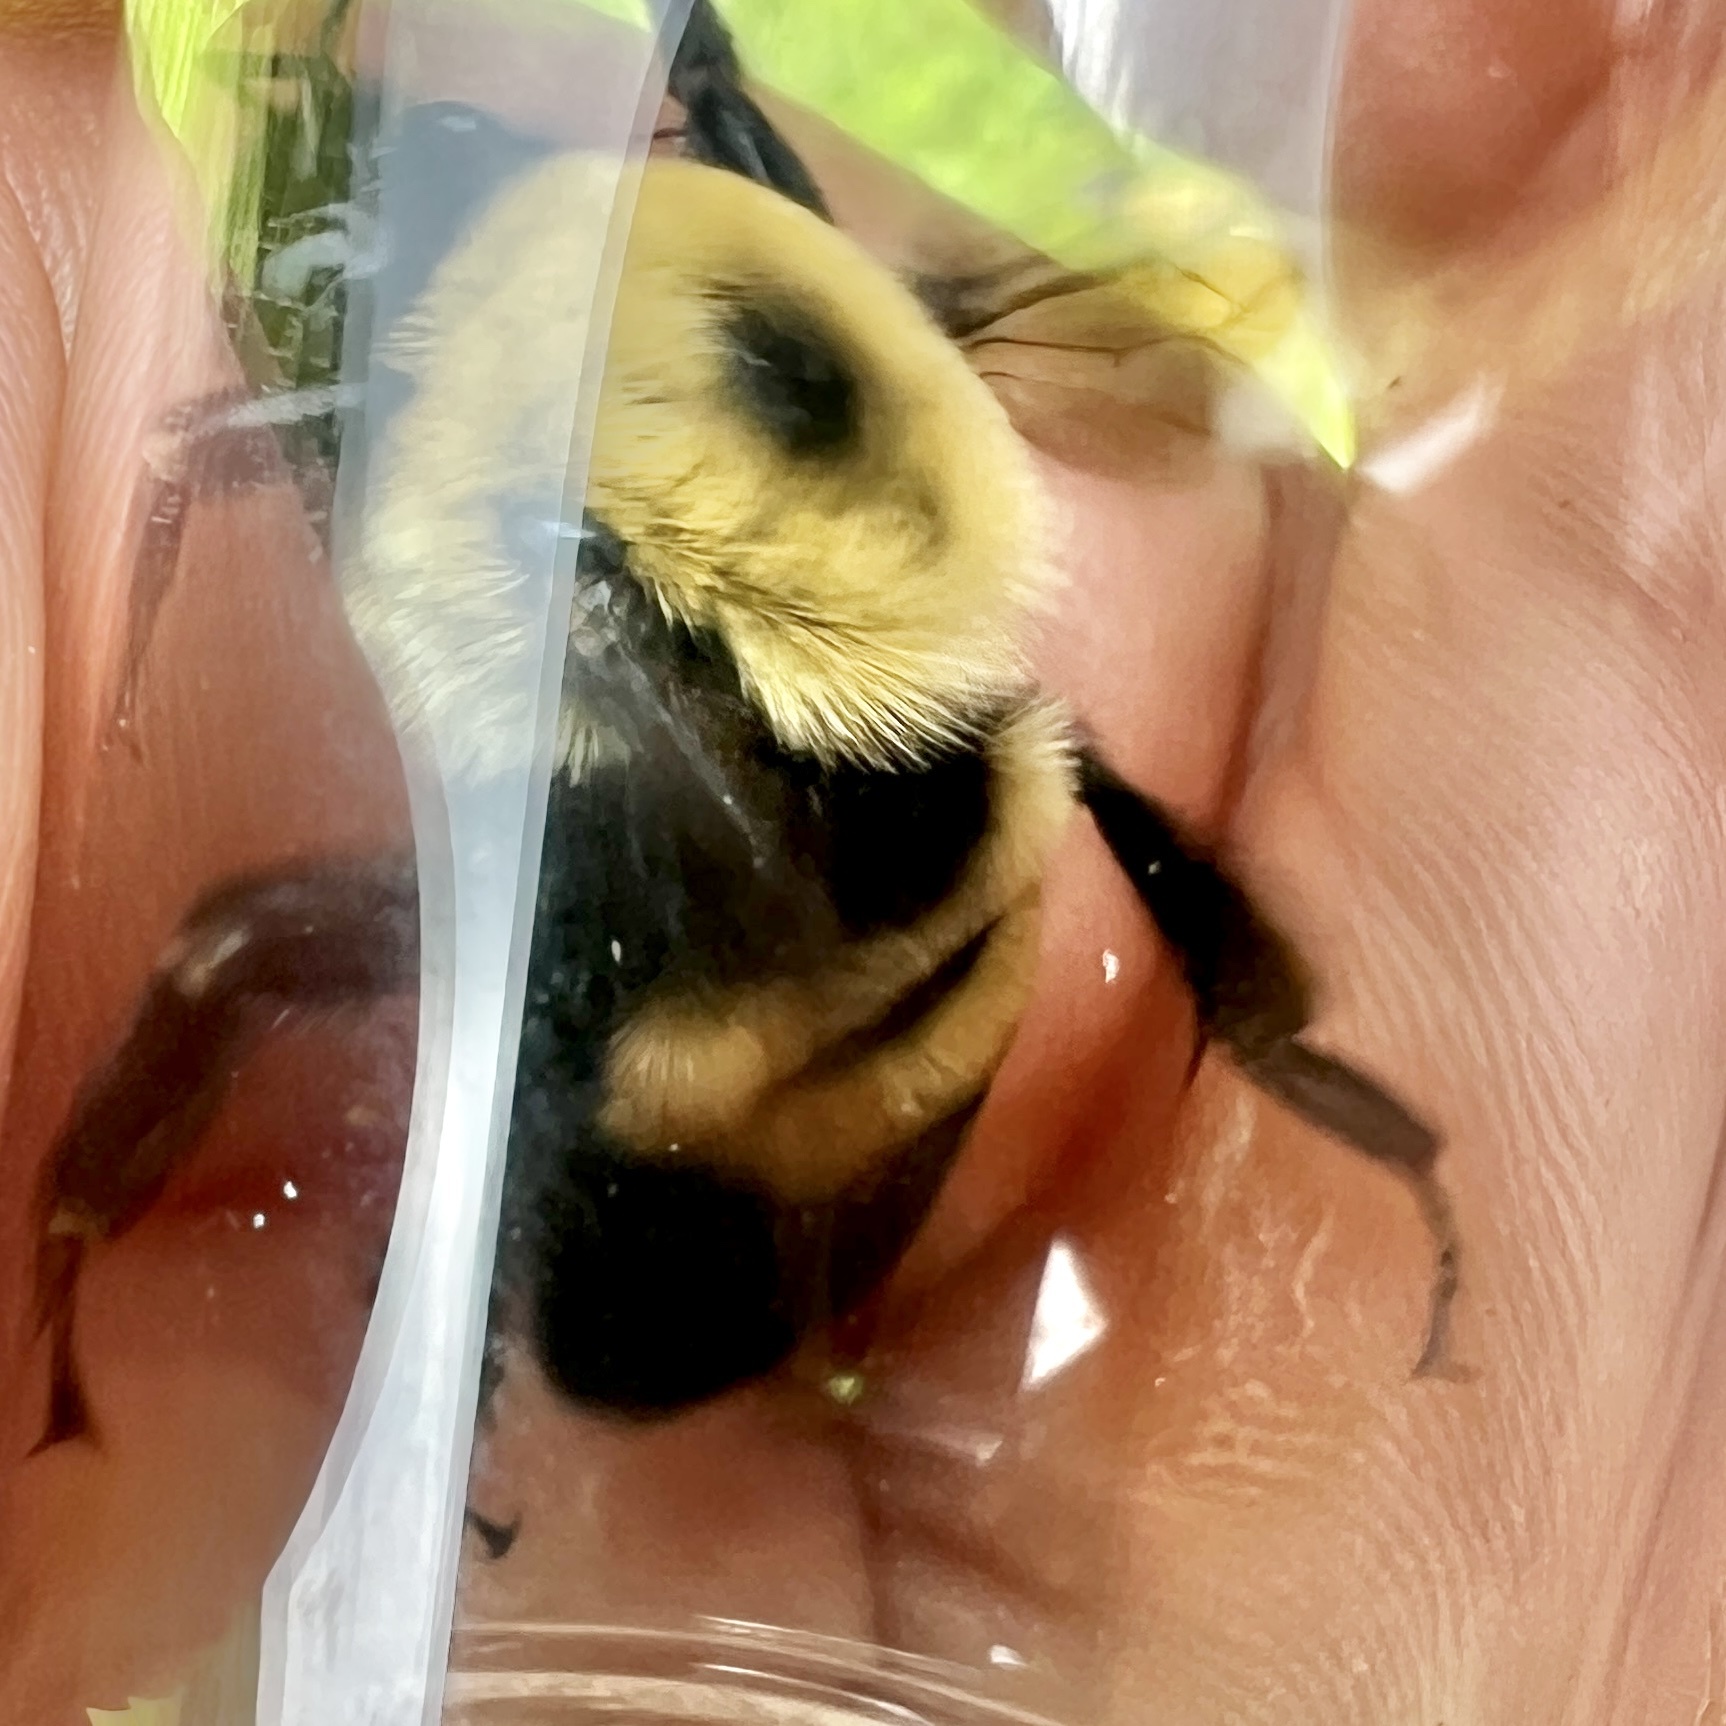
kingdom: Animalia
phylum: Arthropoda
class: Insecta
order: Hymenoptera
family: Apidae
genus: Bombus
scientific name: Bombus griseocollis
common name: Brown-belted bumble bee
